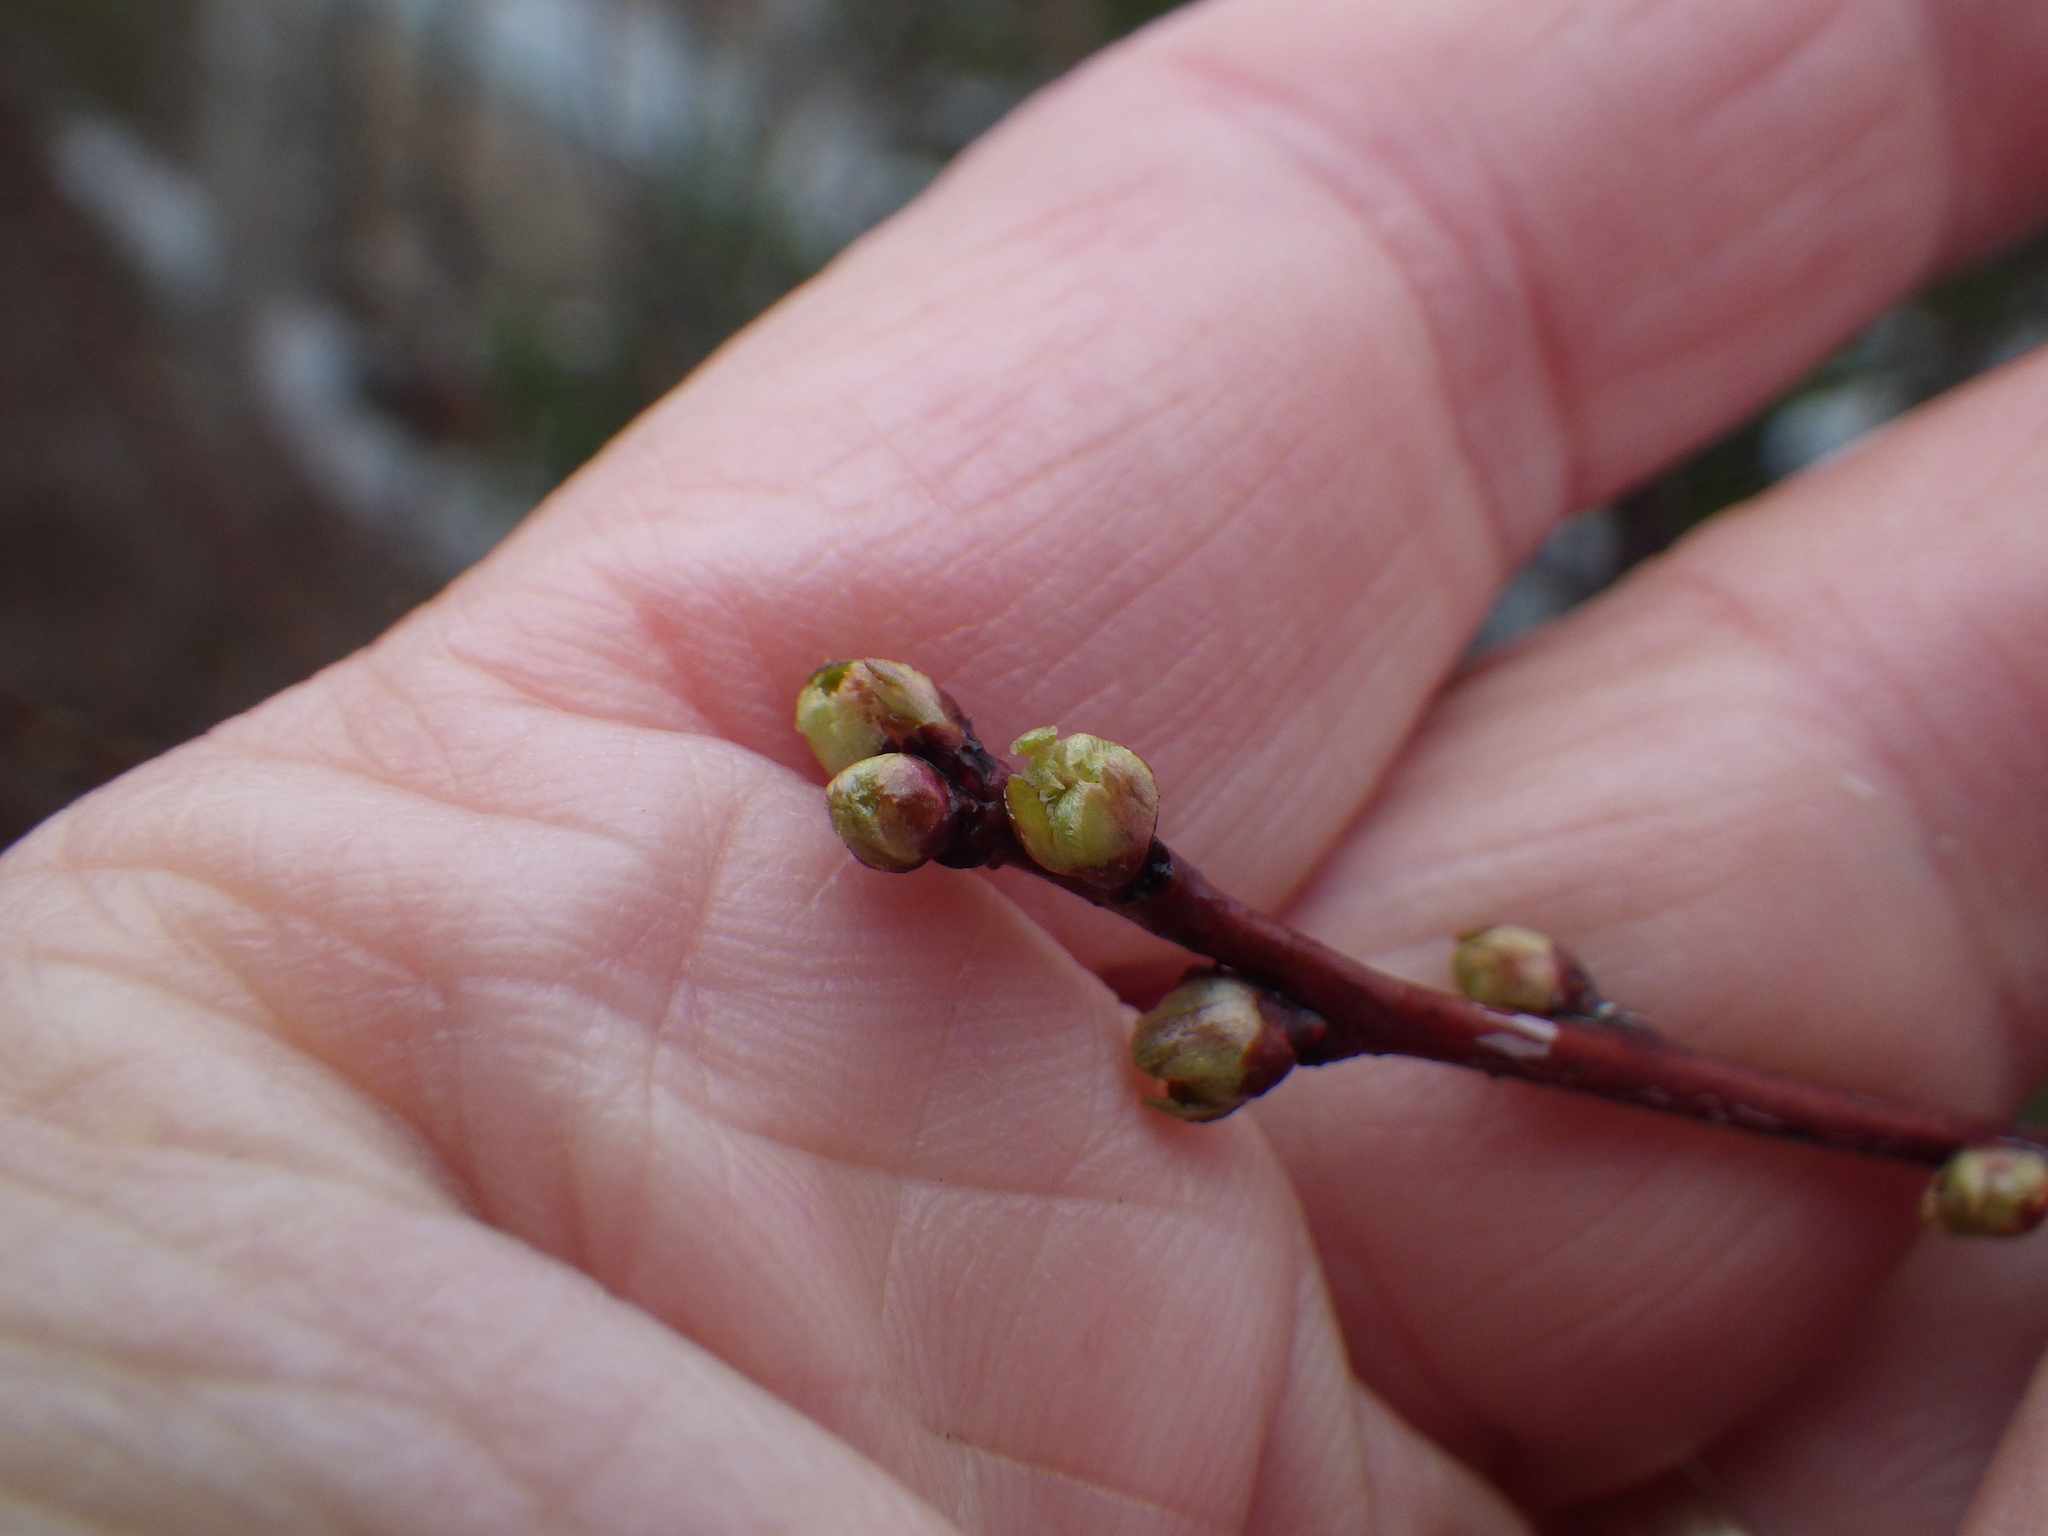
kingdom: Plantae
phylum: Tracheophyta
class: Magnoliopsida
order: Rosales
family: Rosaceae
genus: Prunus
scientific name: Prunus pensylvanica
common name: Pin cherry
